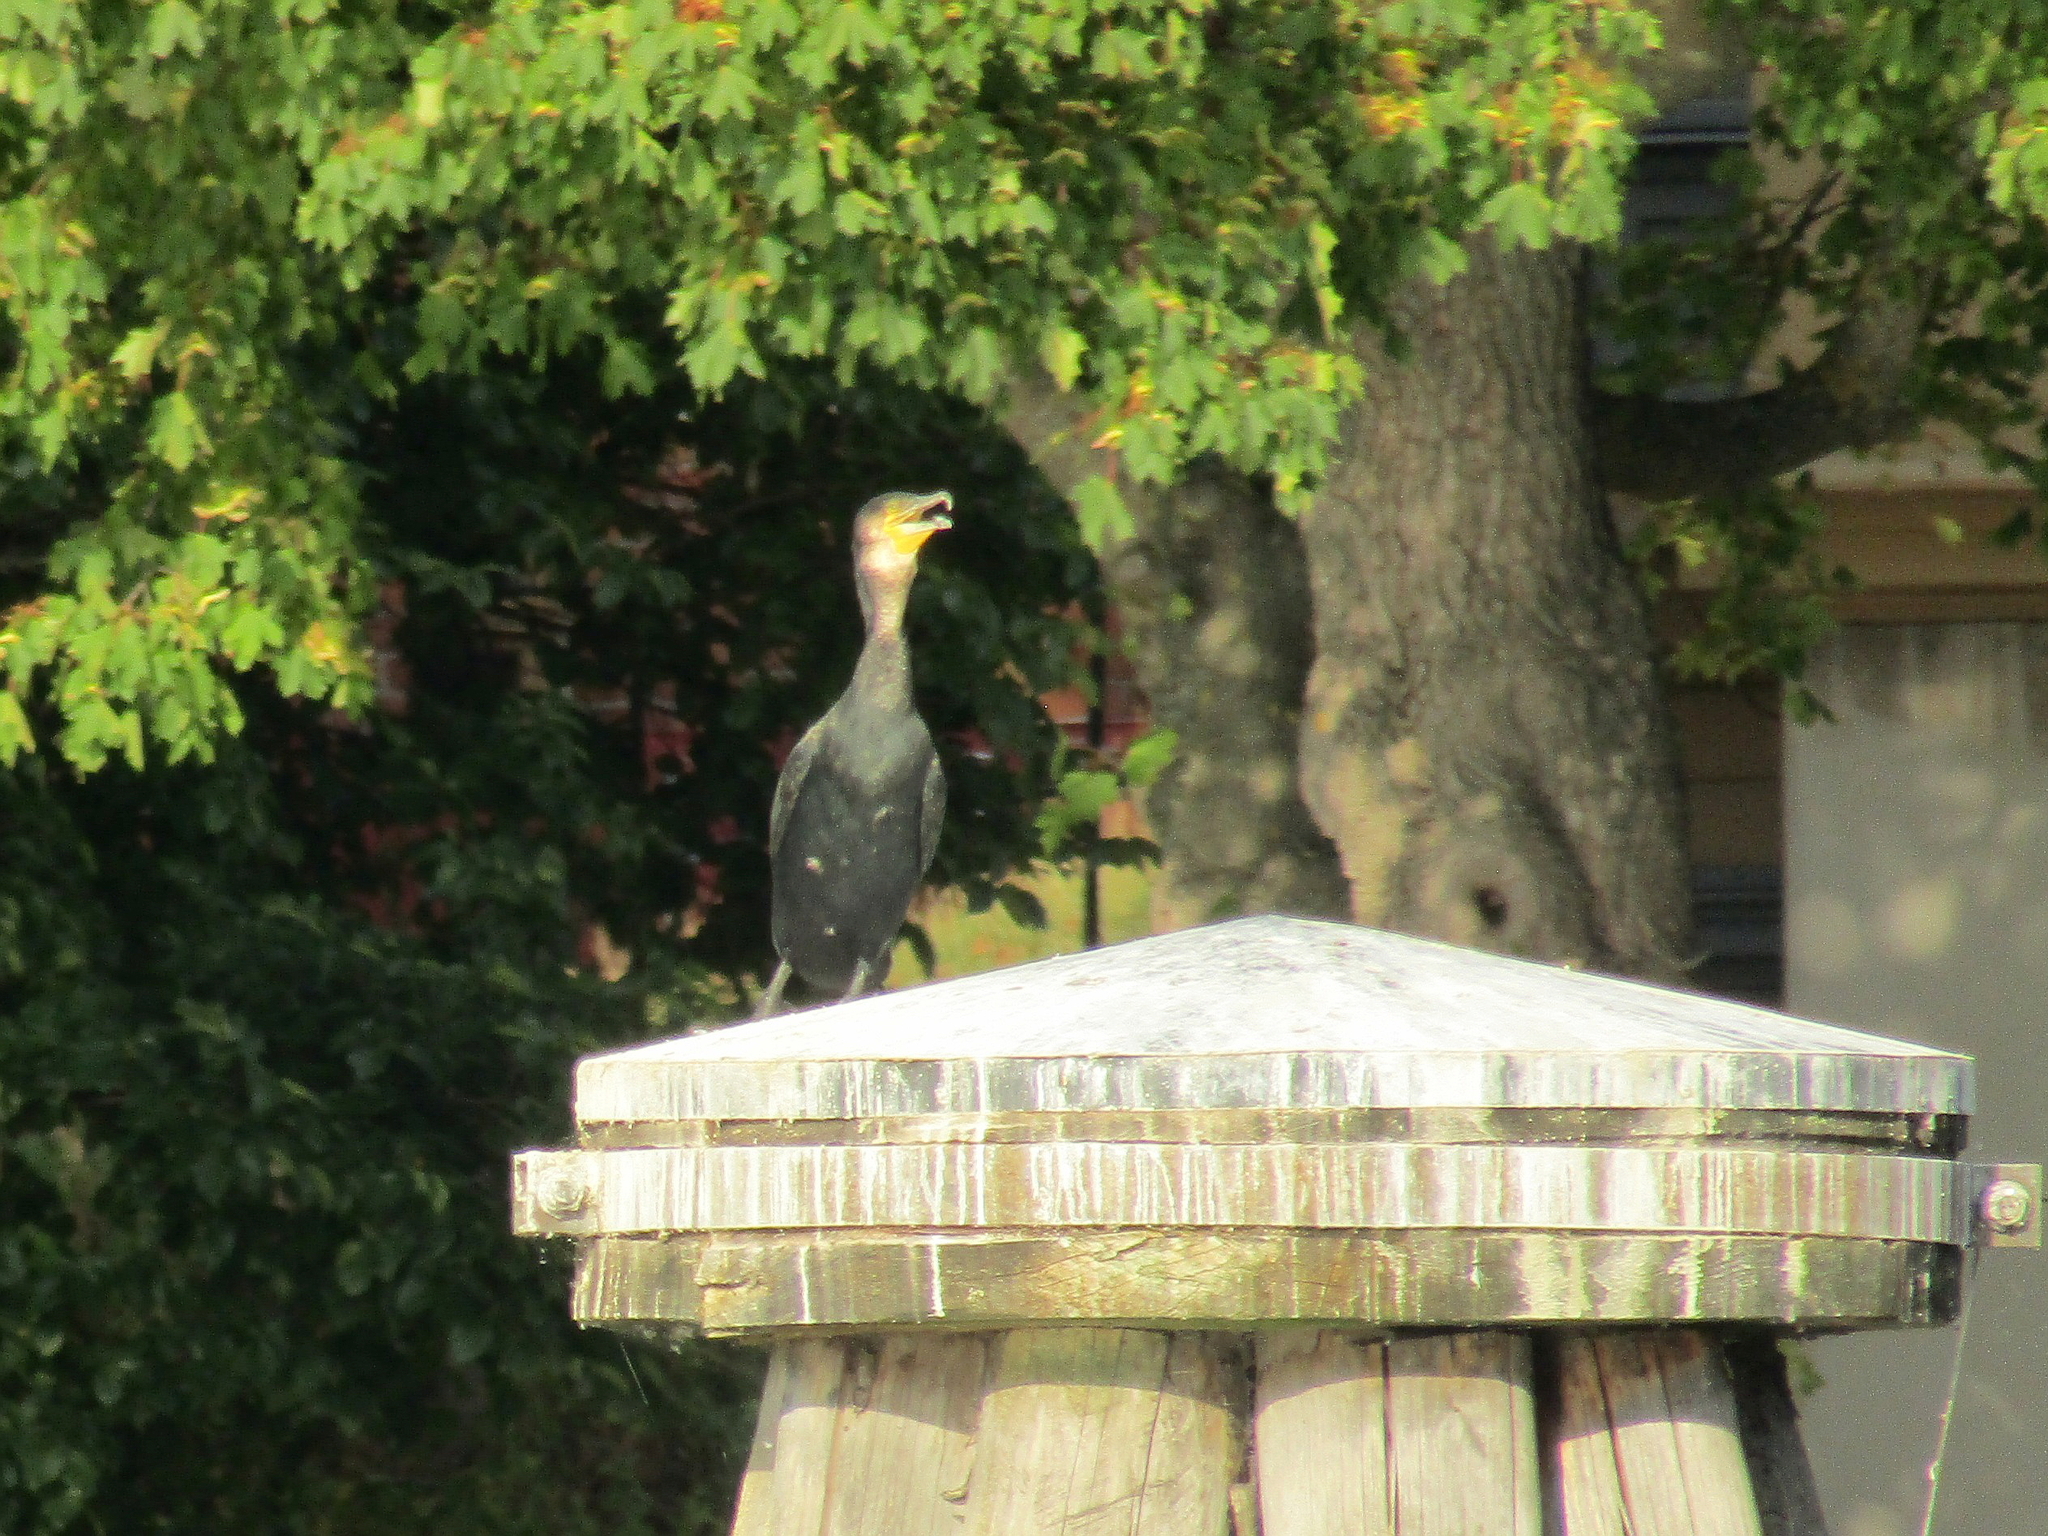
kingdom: Animalia
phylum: Chordata
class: Aves
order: Suliformes
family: Phalacrocoracidae
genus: Phalacrocorax
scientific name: Phalacrocorax carbo
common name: Great cormorant
